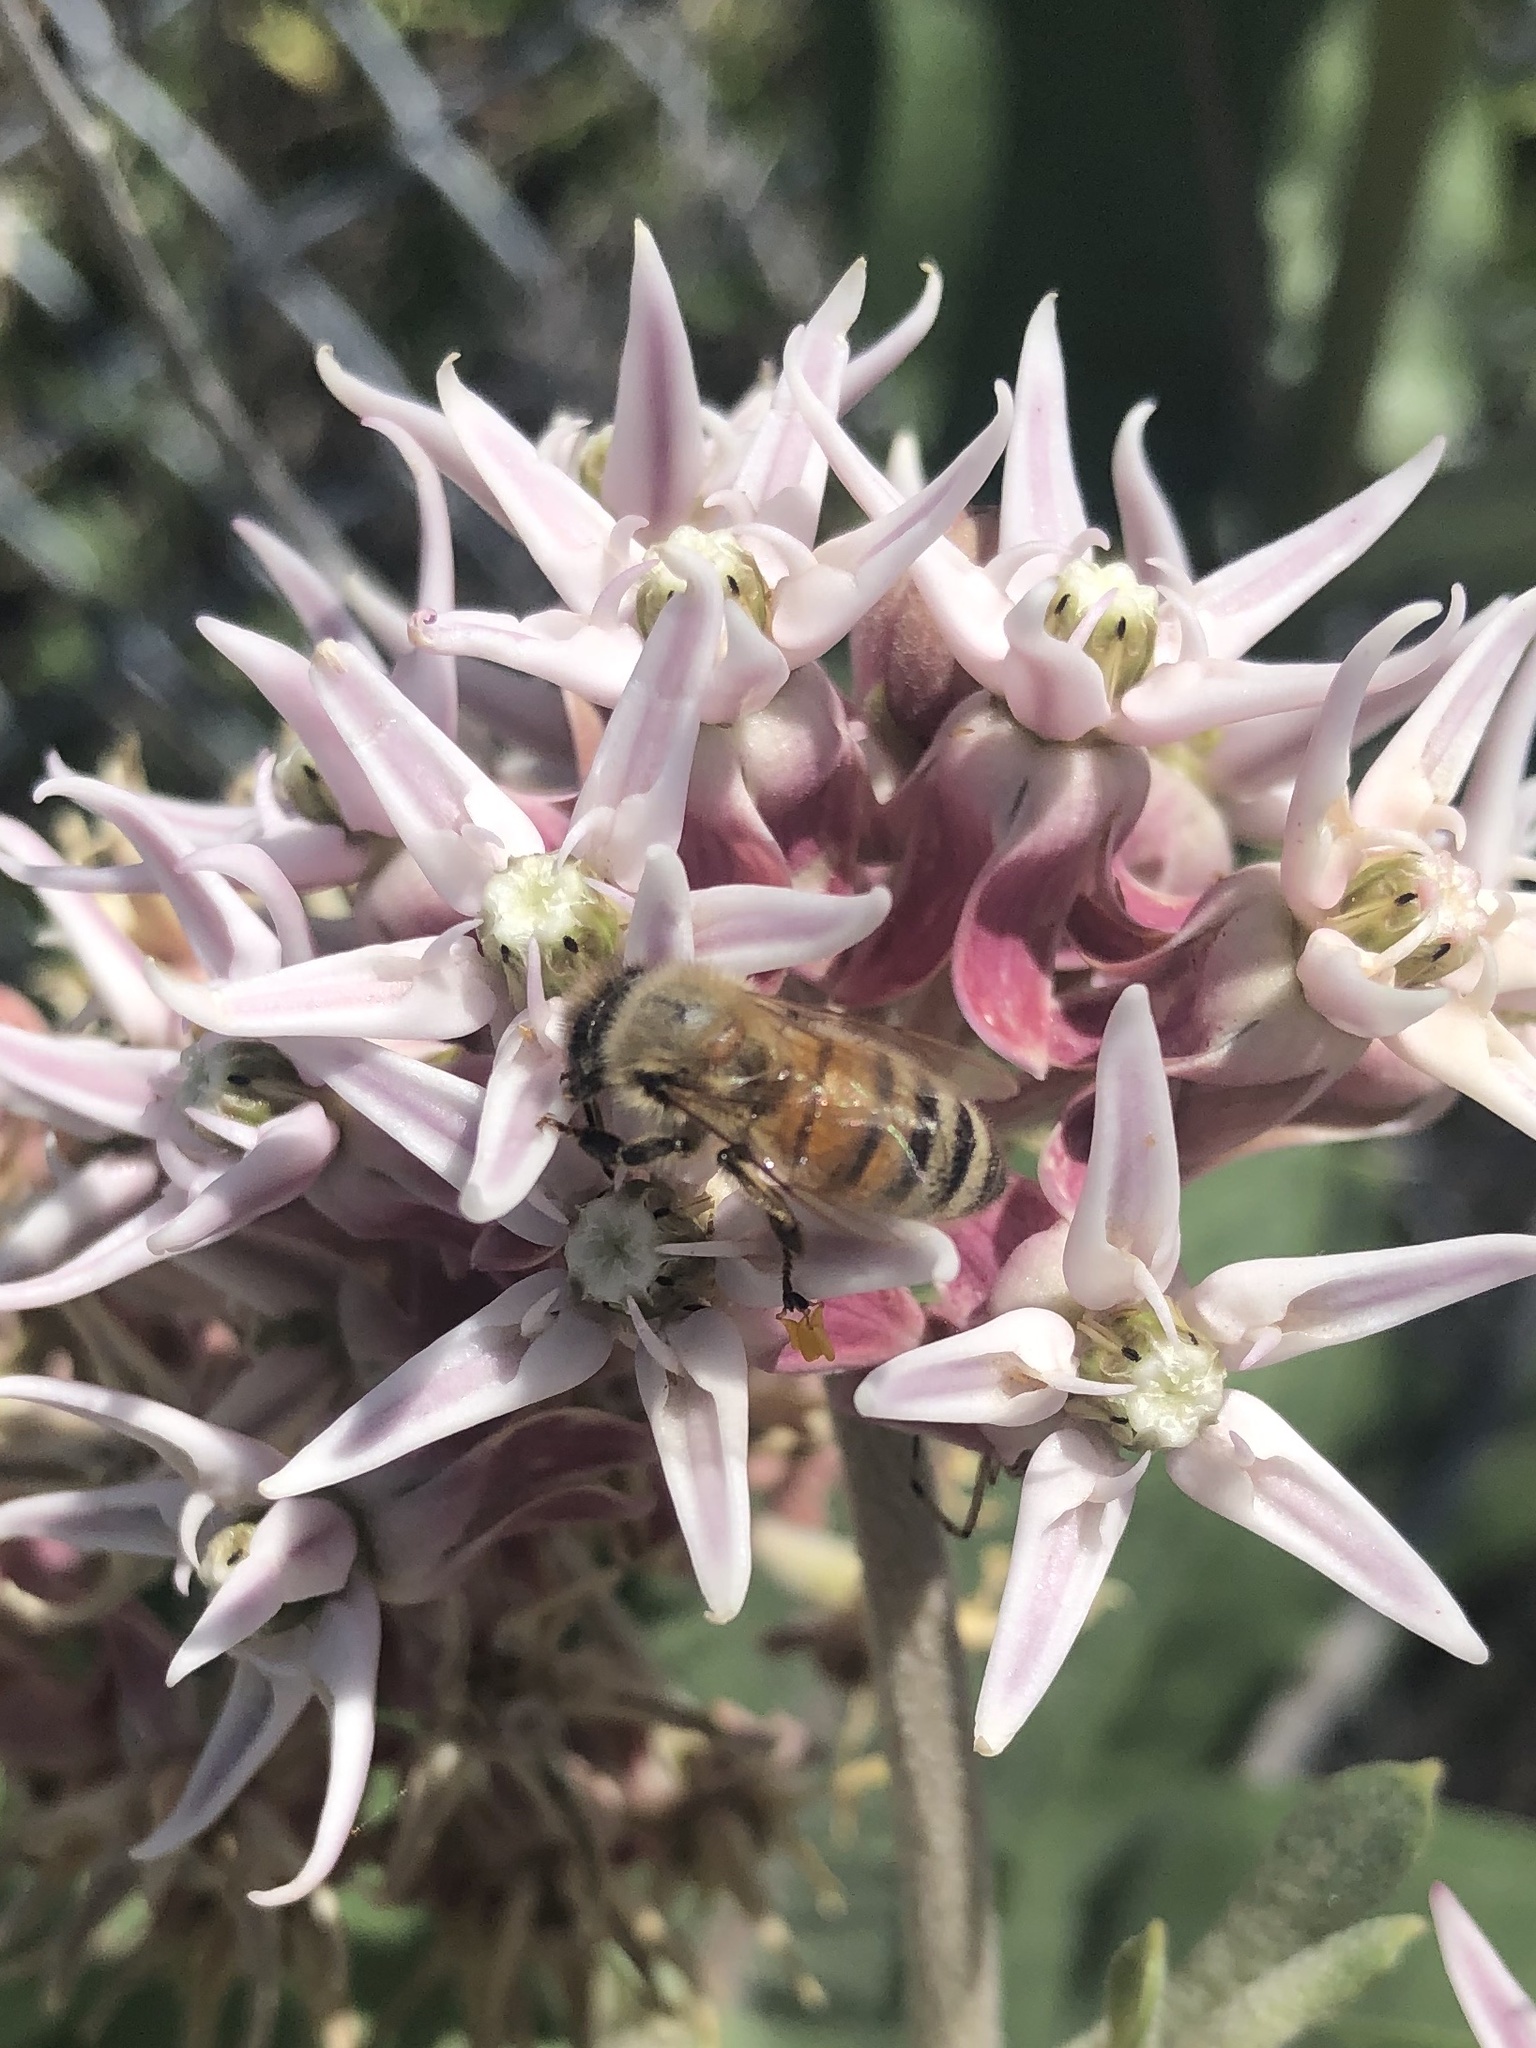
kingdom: Animalia
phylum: Arthropoda
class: Insecta
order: Hymenoptera
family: Apidae
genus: Apis
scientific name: Apis mellifera
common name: Honey bee
